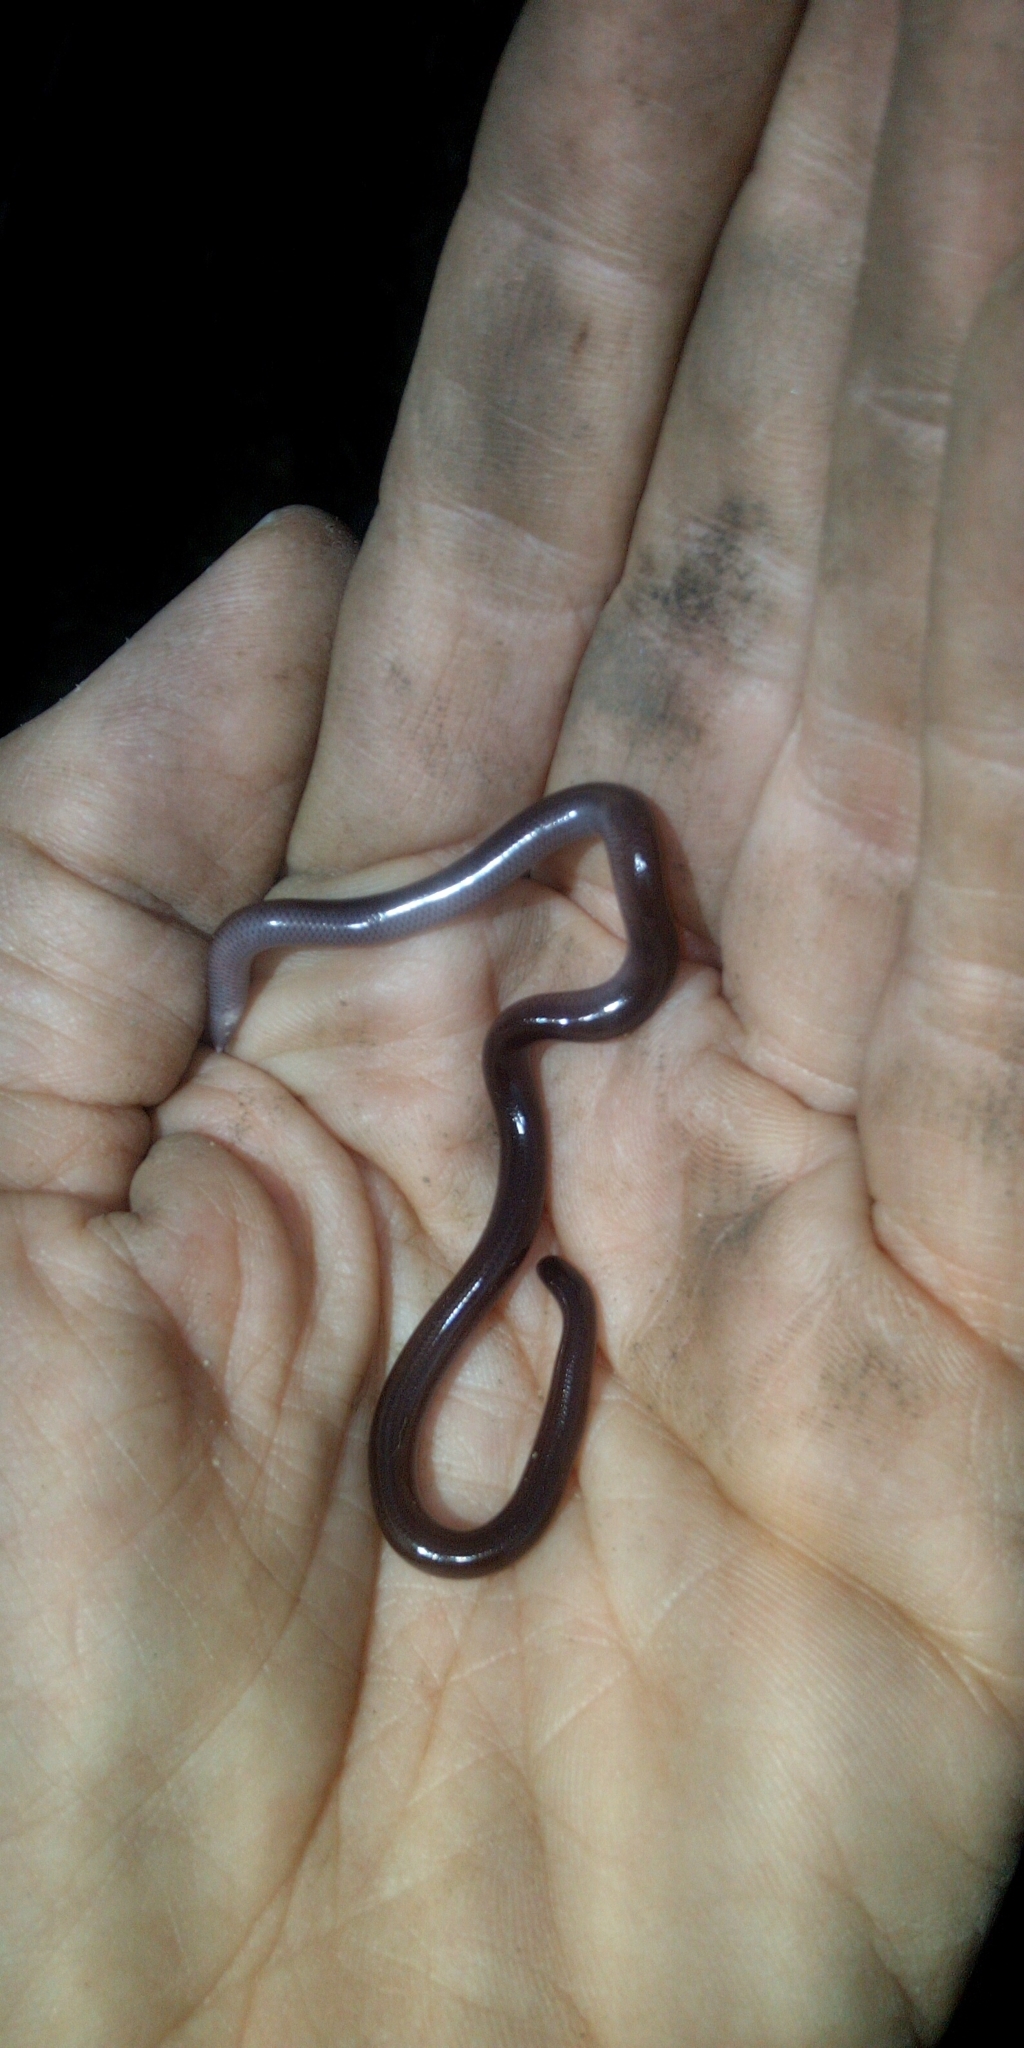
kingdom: Animalia
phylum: Chordata
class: Squamata
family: Typhlopidae
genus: Indotyphlops
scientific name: Indotyphlops braminus
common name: Brahminy blindsnake
